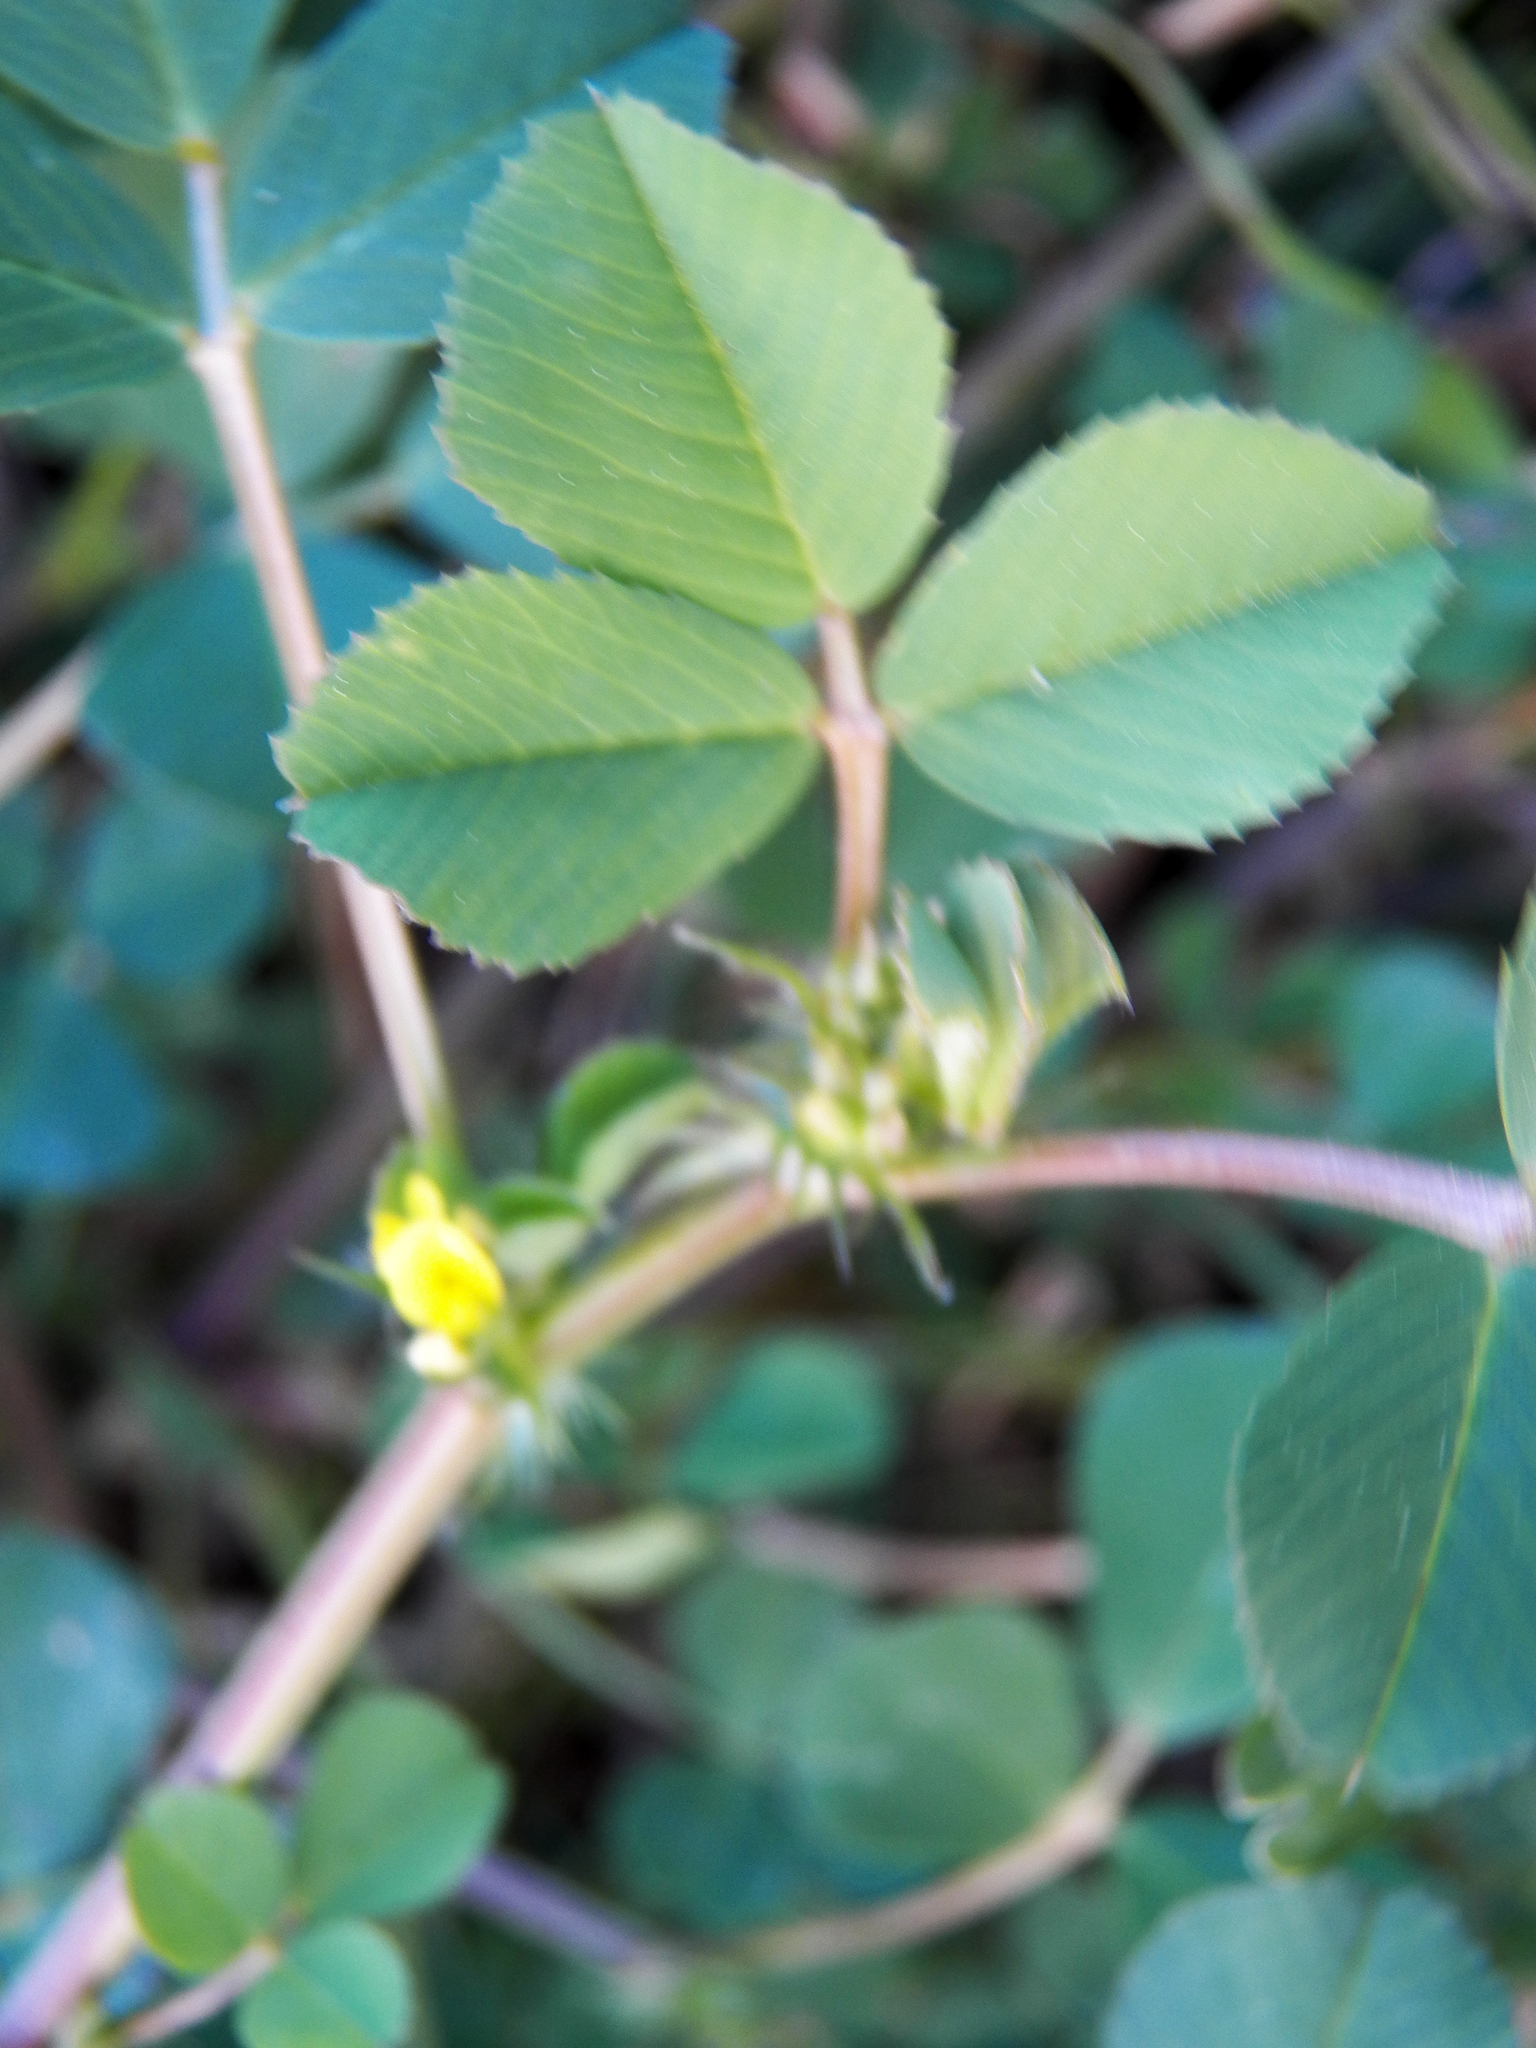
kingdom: Plantae
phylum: Tracheophyta
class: Magnoliopsida
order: Fabales
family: Fabaceae
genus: Medicago
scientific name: Medicago polymorpha
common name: Burclover
